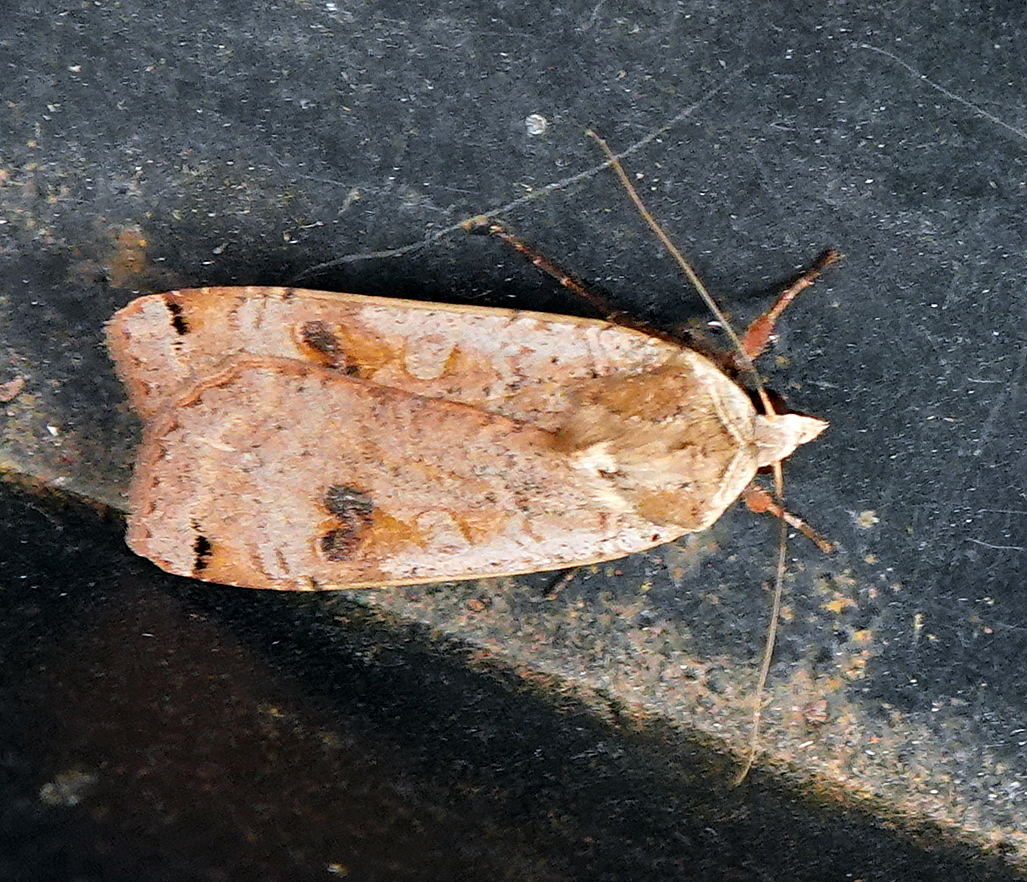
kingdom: Animalia
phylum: Arthropoda
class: Insecta
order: Lepidoptera
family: Noctuidae
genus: Noctua
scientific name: Noctua pronuba
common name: Large yellow underwing
